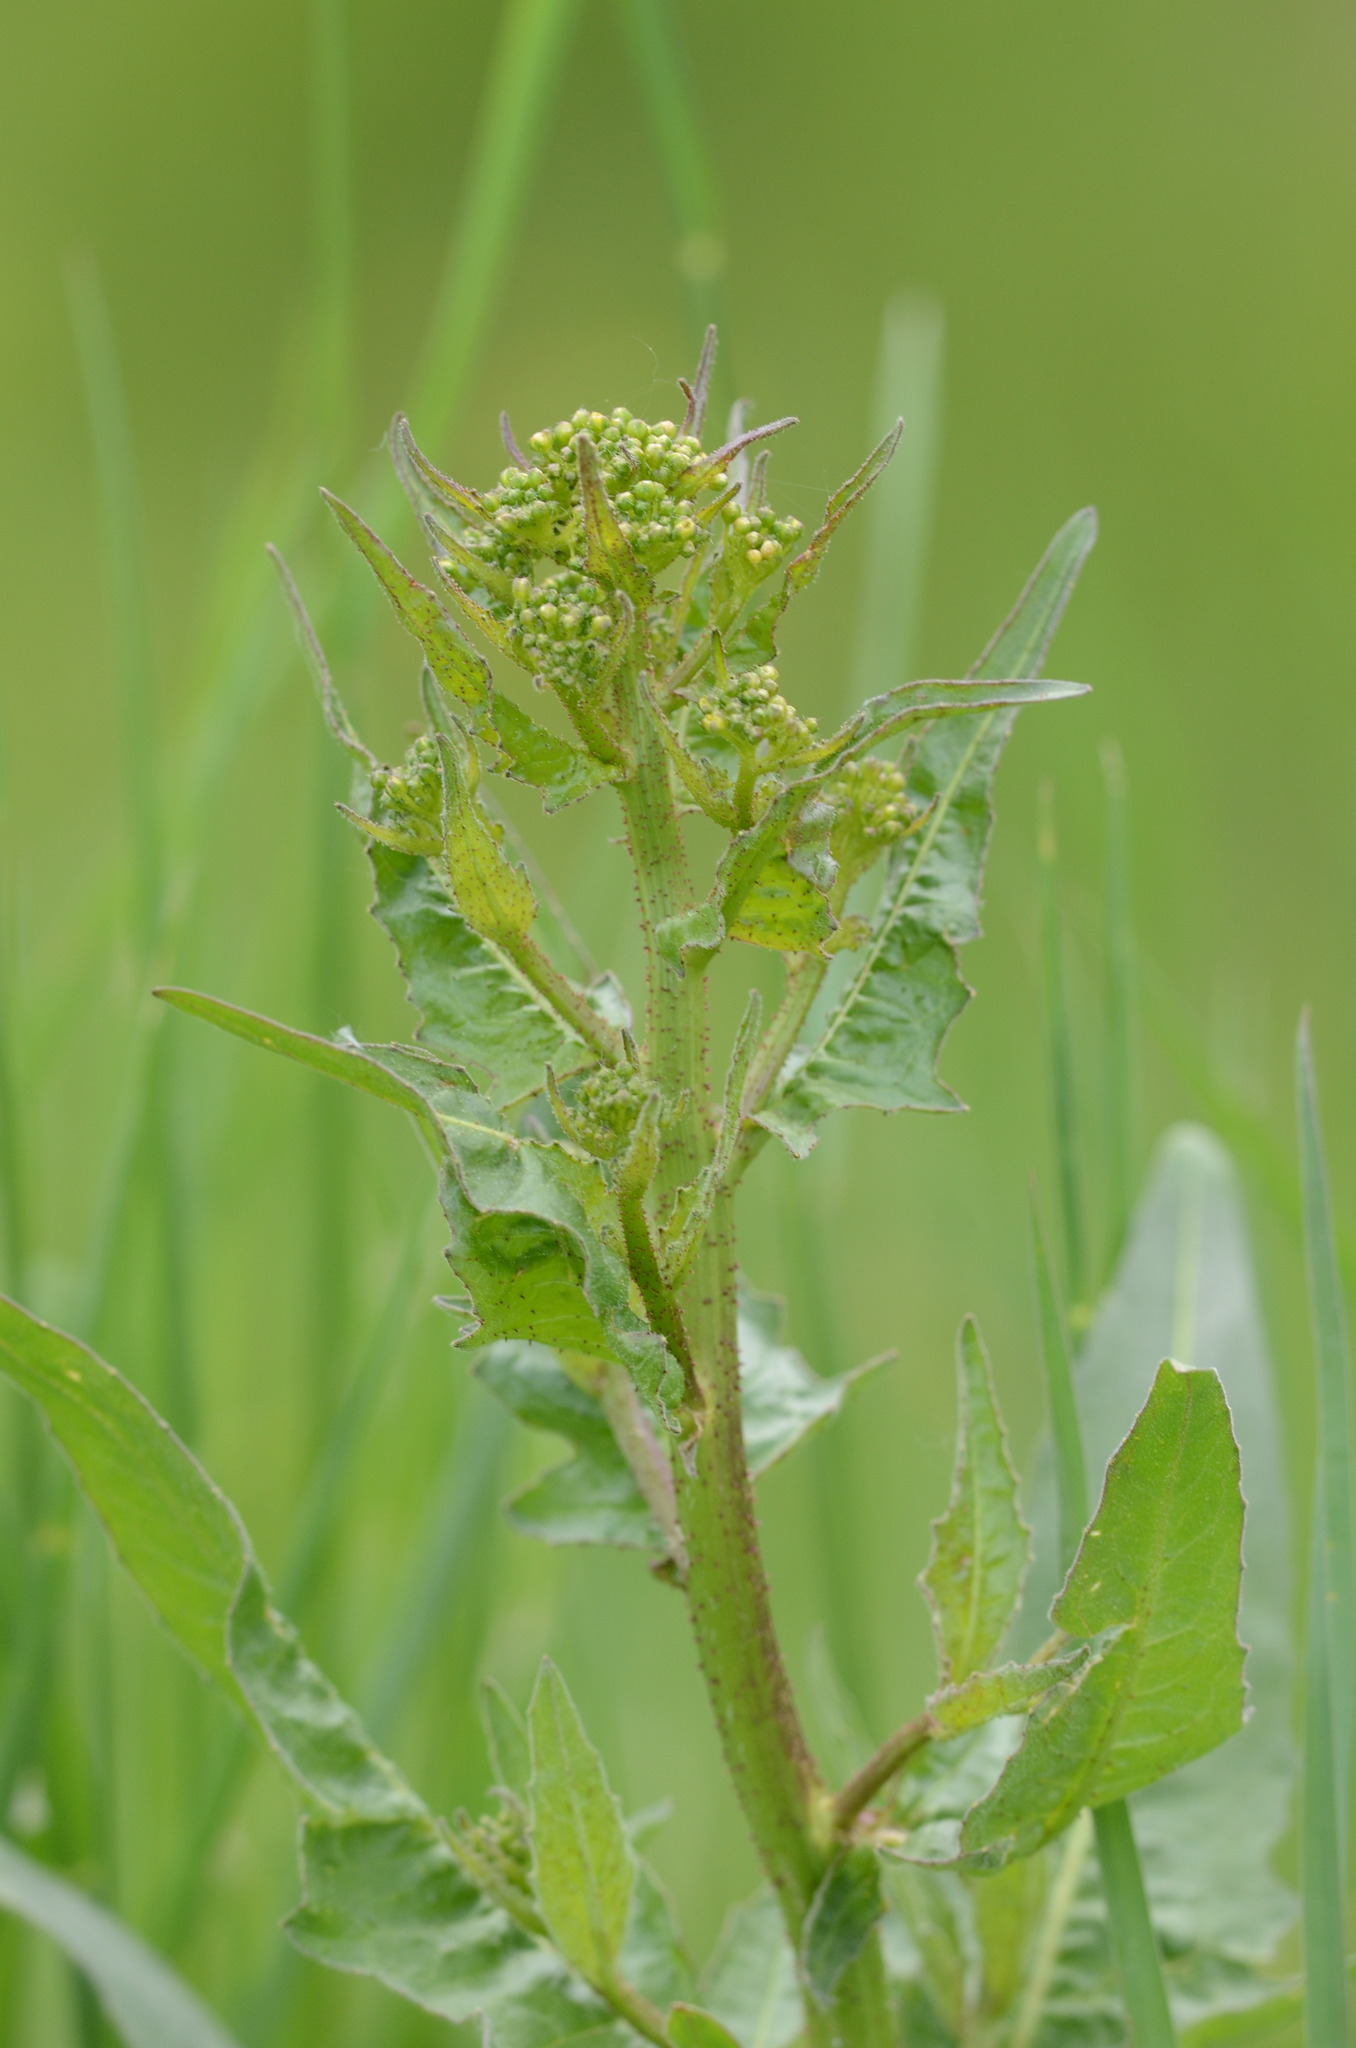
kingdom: Plantae
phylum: Tracheophyta
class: Magnoliopsida
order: Brassicales
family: Brassicaceae
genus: Bunias
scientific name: Bunias orientalis
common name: Warty-cabbage
